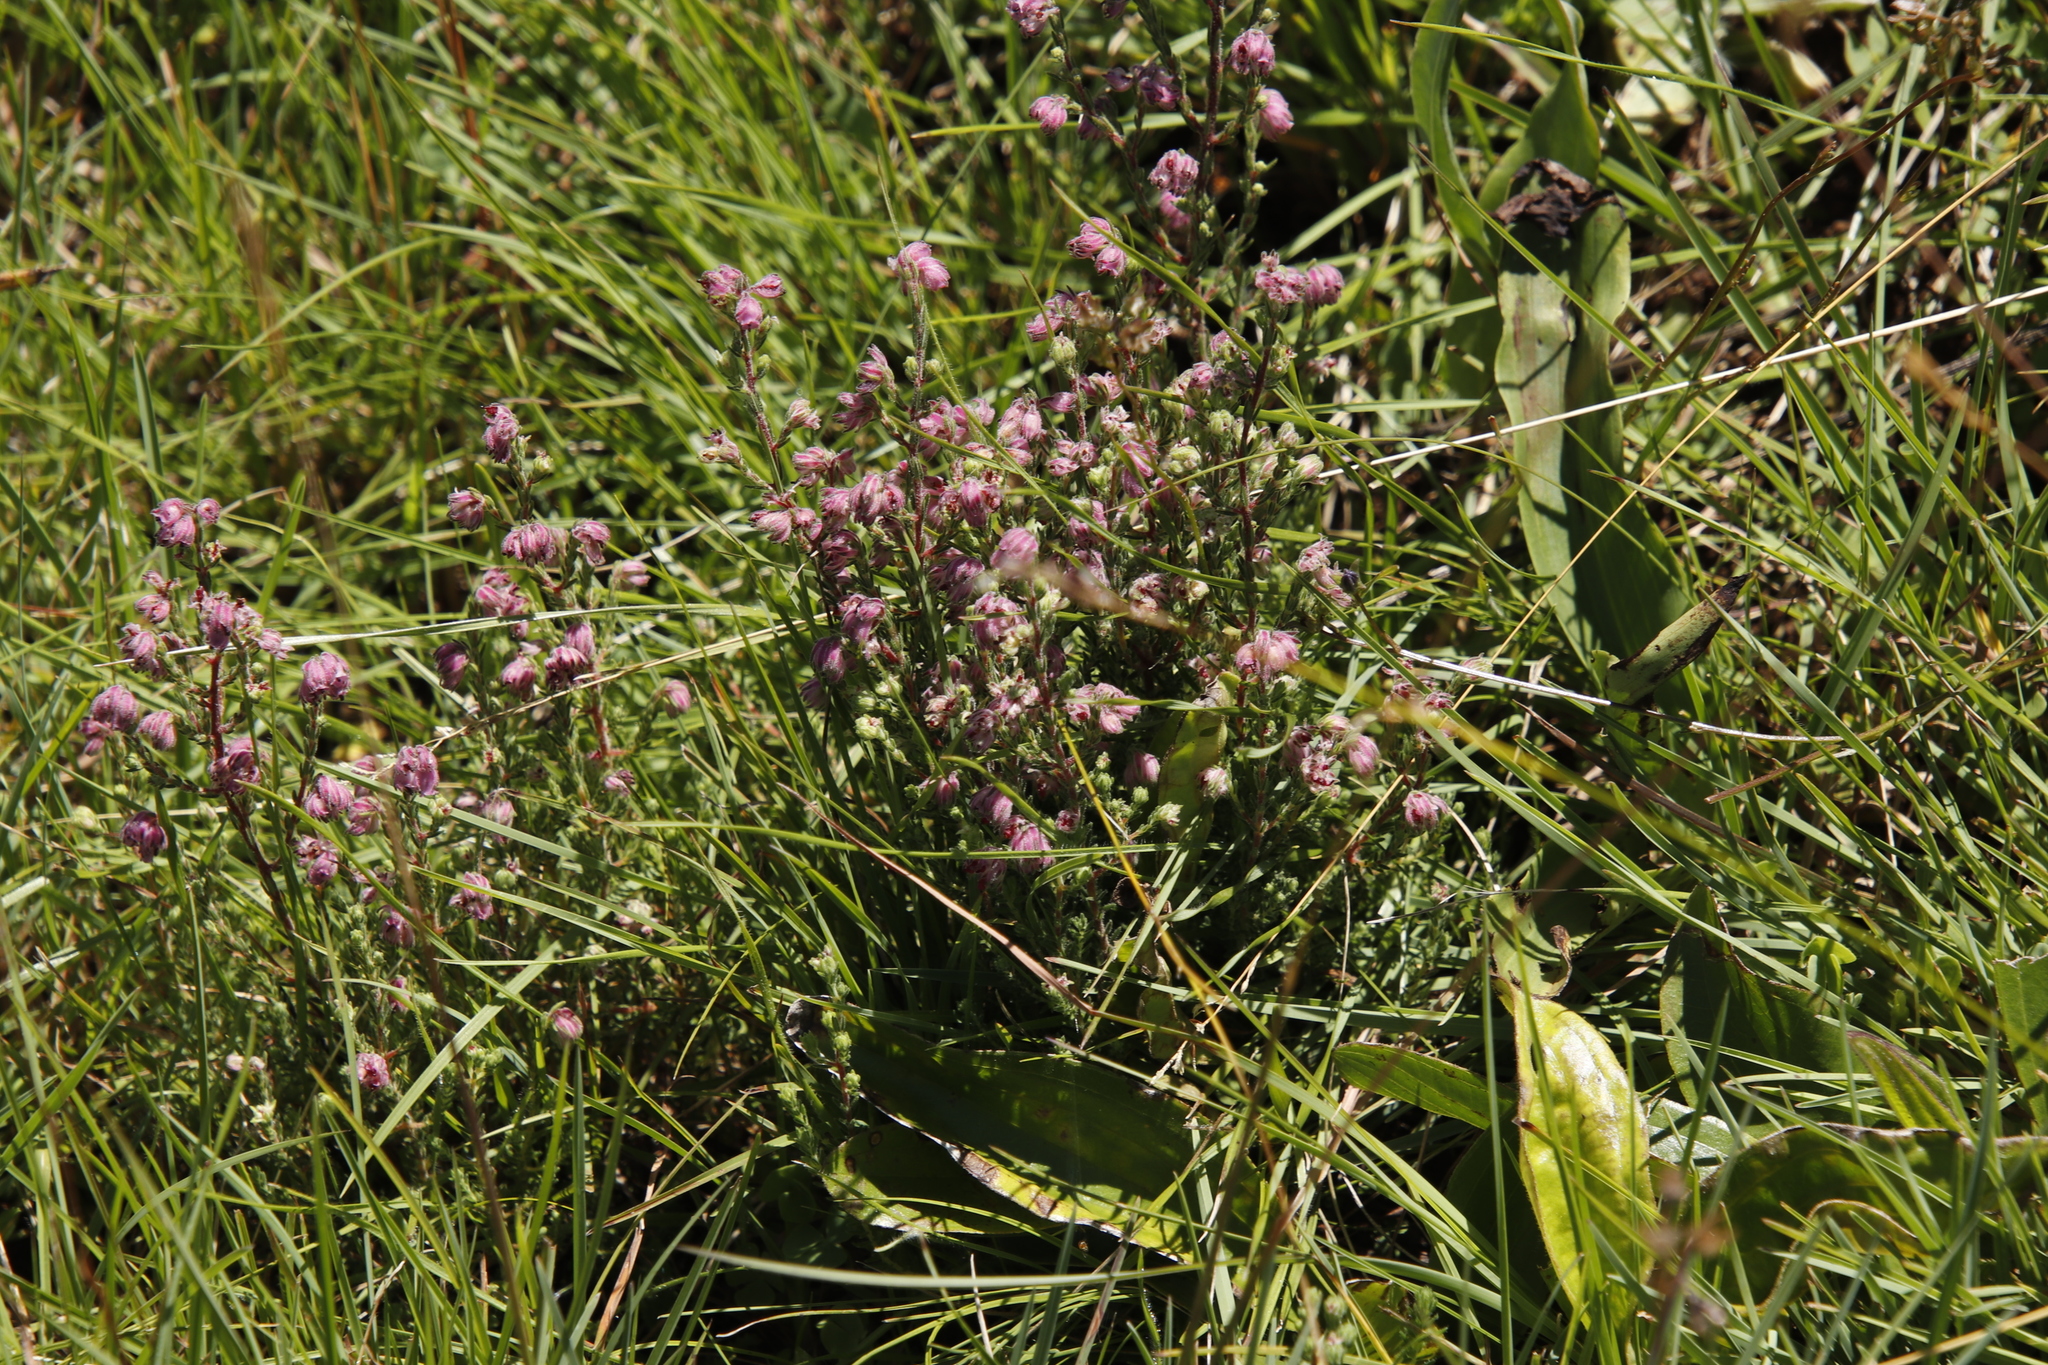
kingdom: Plantae
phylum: Tracheophyta
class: Magnoliopsida
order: Ericales
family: Ericaceae
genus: Erica
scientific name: Erica cooperi
